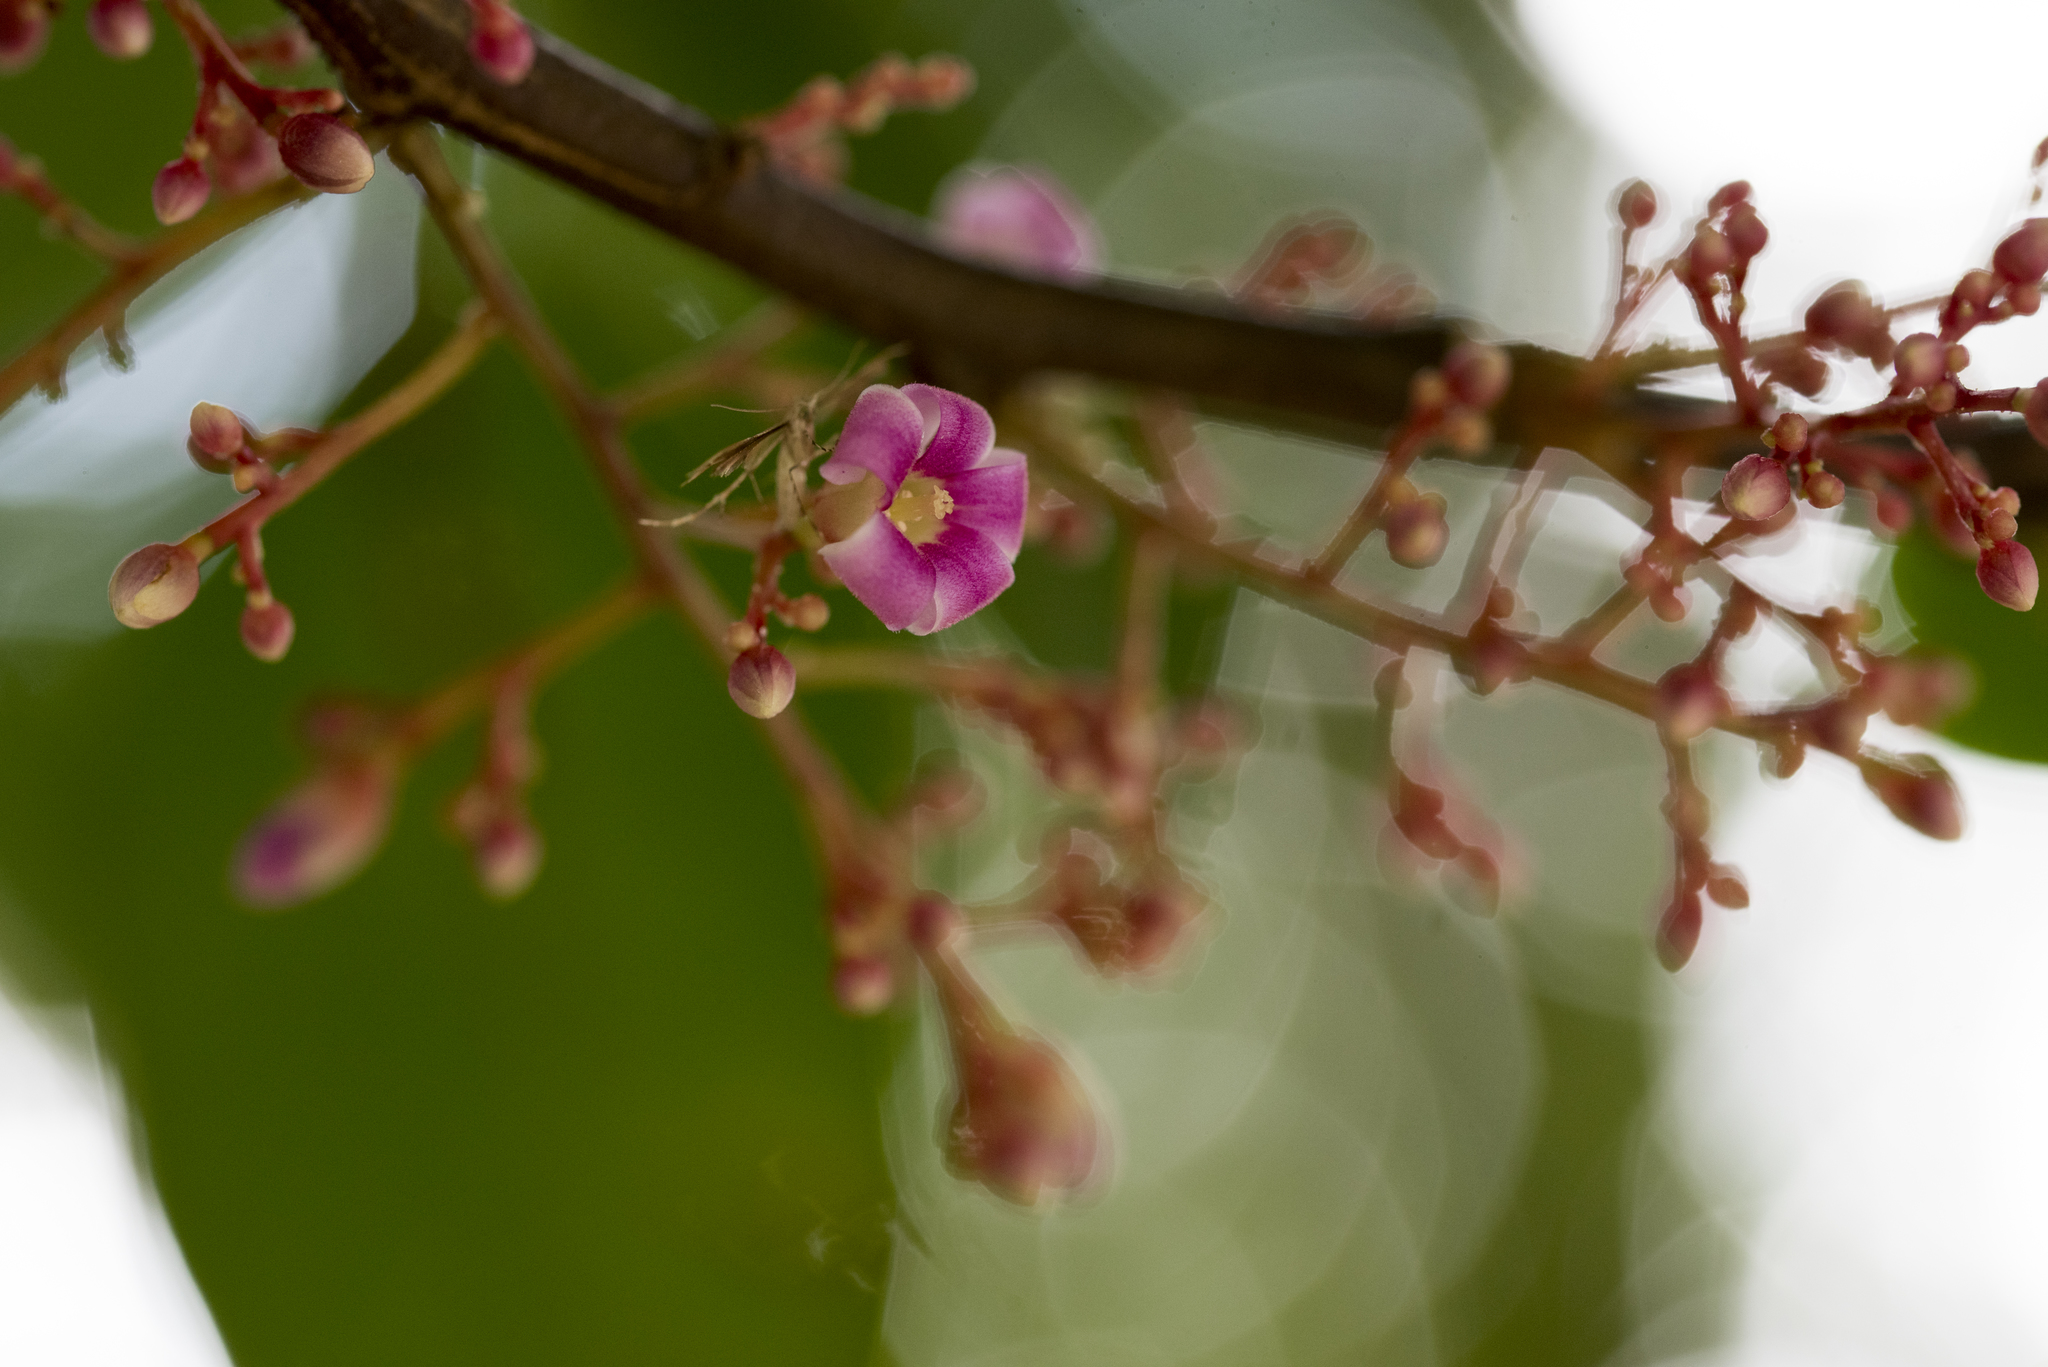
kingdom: Plantae
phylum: Tracheophyta
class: Magnoliopsida
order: Oxalidales
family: Oxalidaceae
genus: Averrhoa
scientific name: Averrhoa carambola
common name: Blimbing
